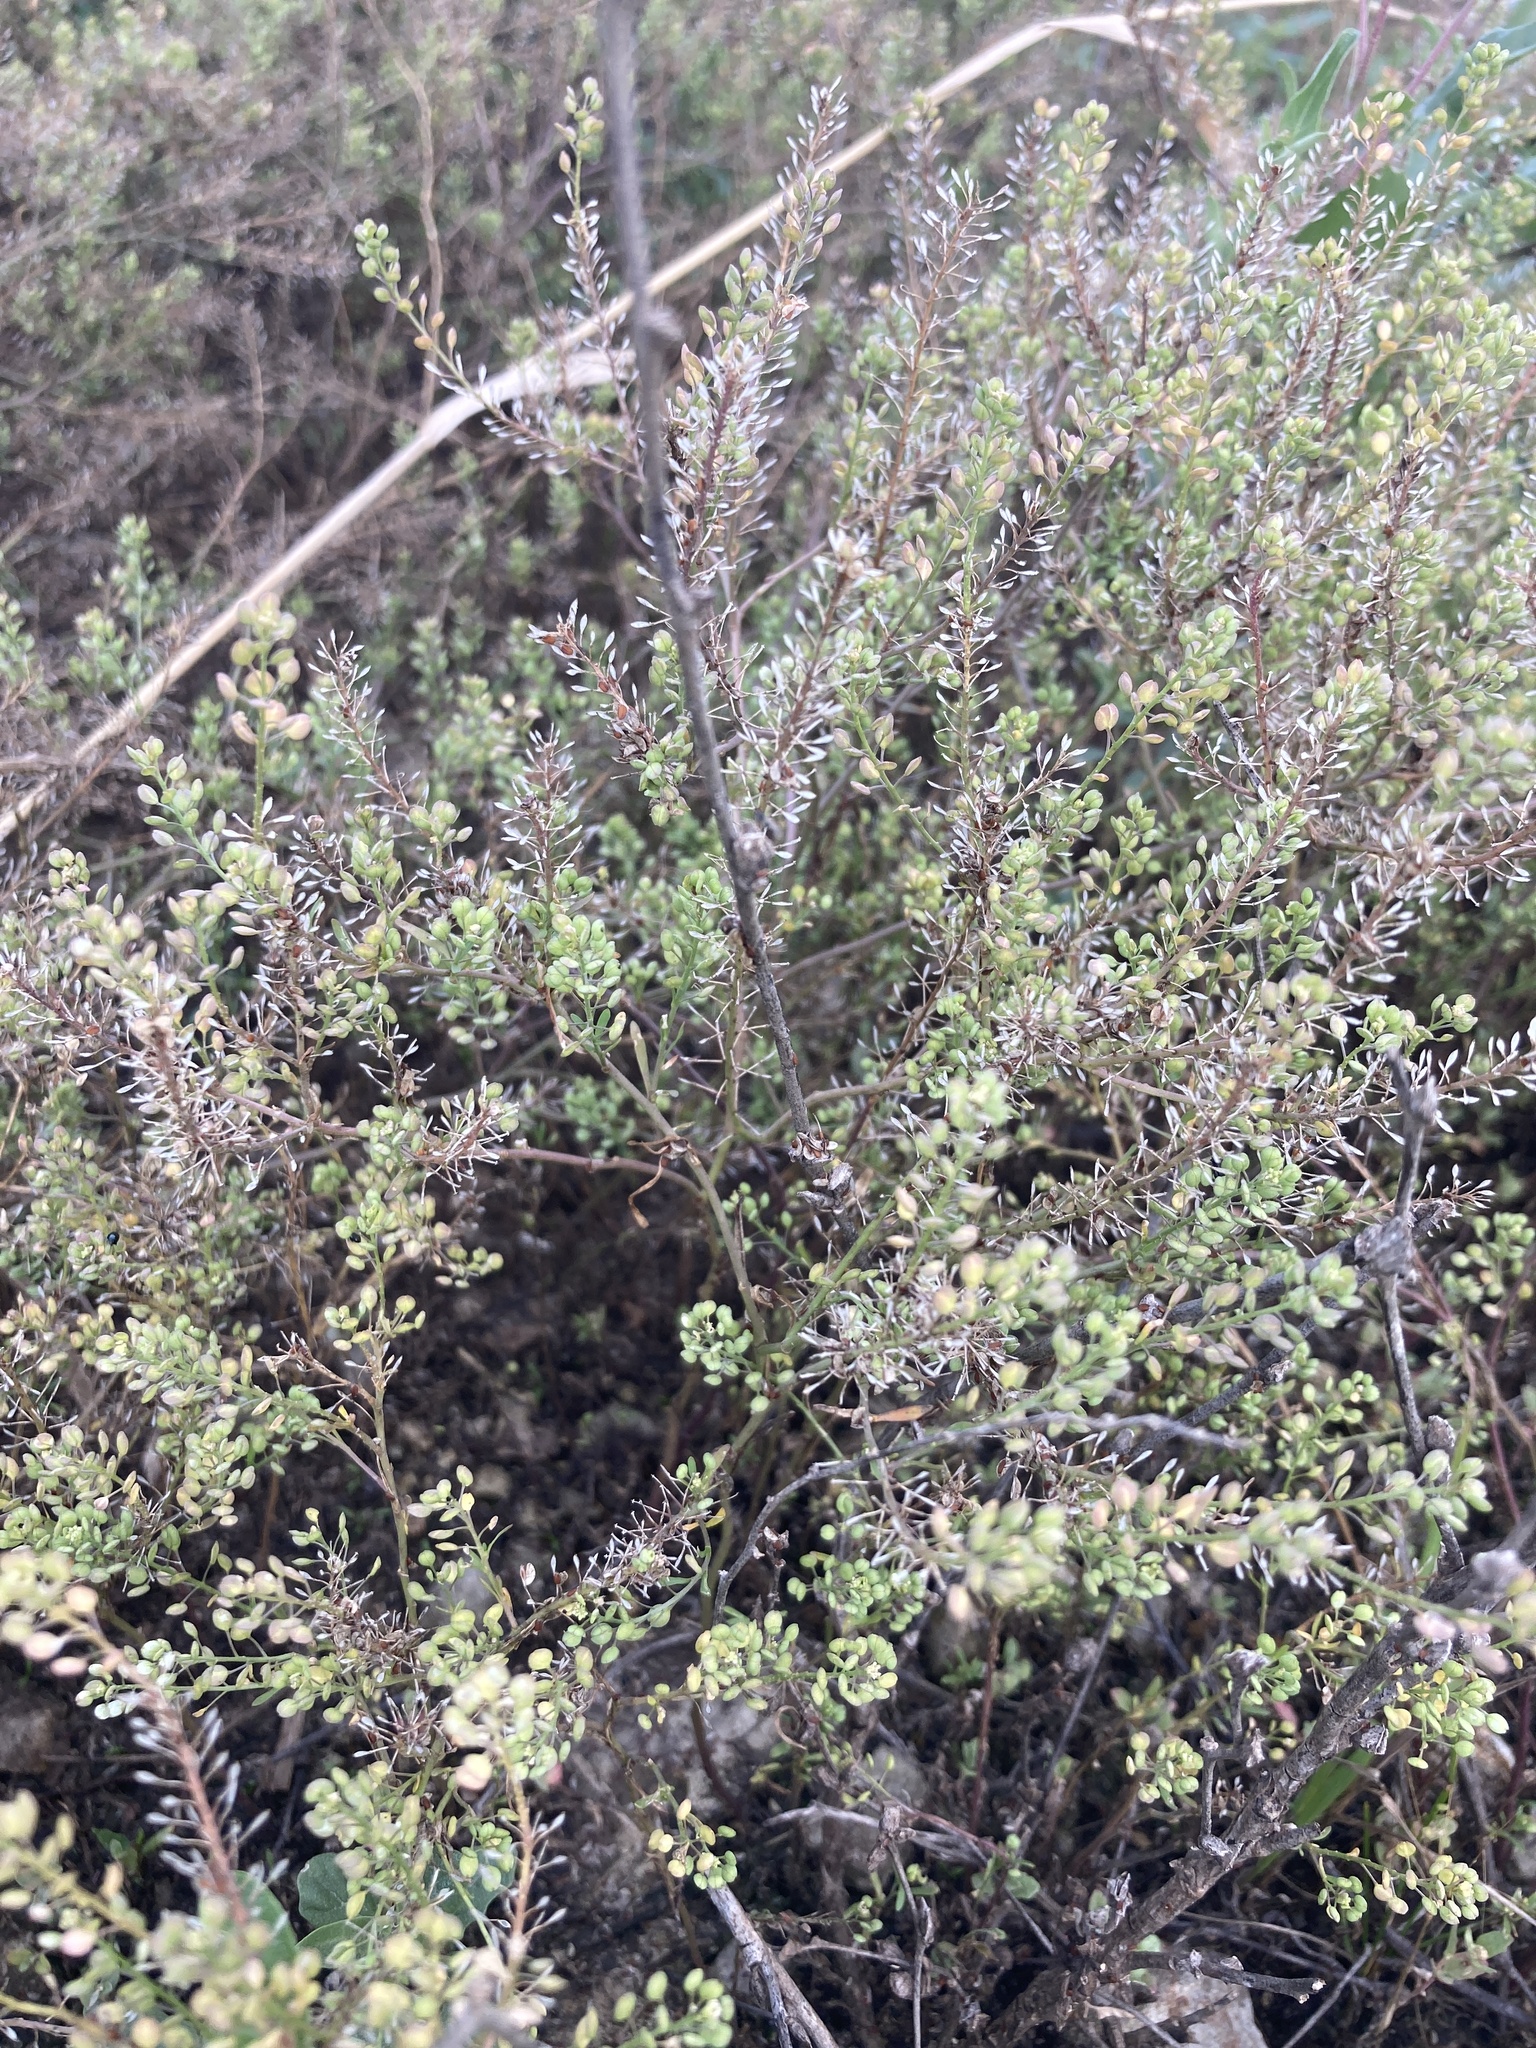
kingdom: Plantae
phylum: Tracheophyta
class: Magnoliopsida
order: Brassicales
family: Brassicaceae
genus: Lepidium
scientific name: Lepidium ruderale
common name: Narrow-leaved pepperwort
